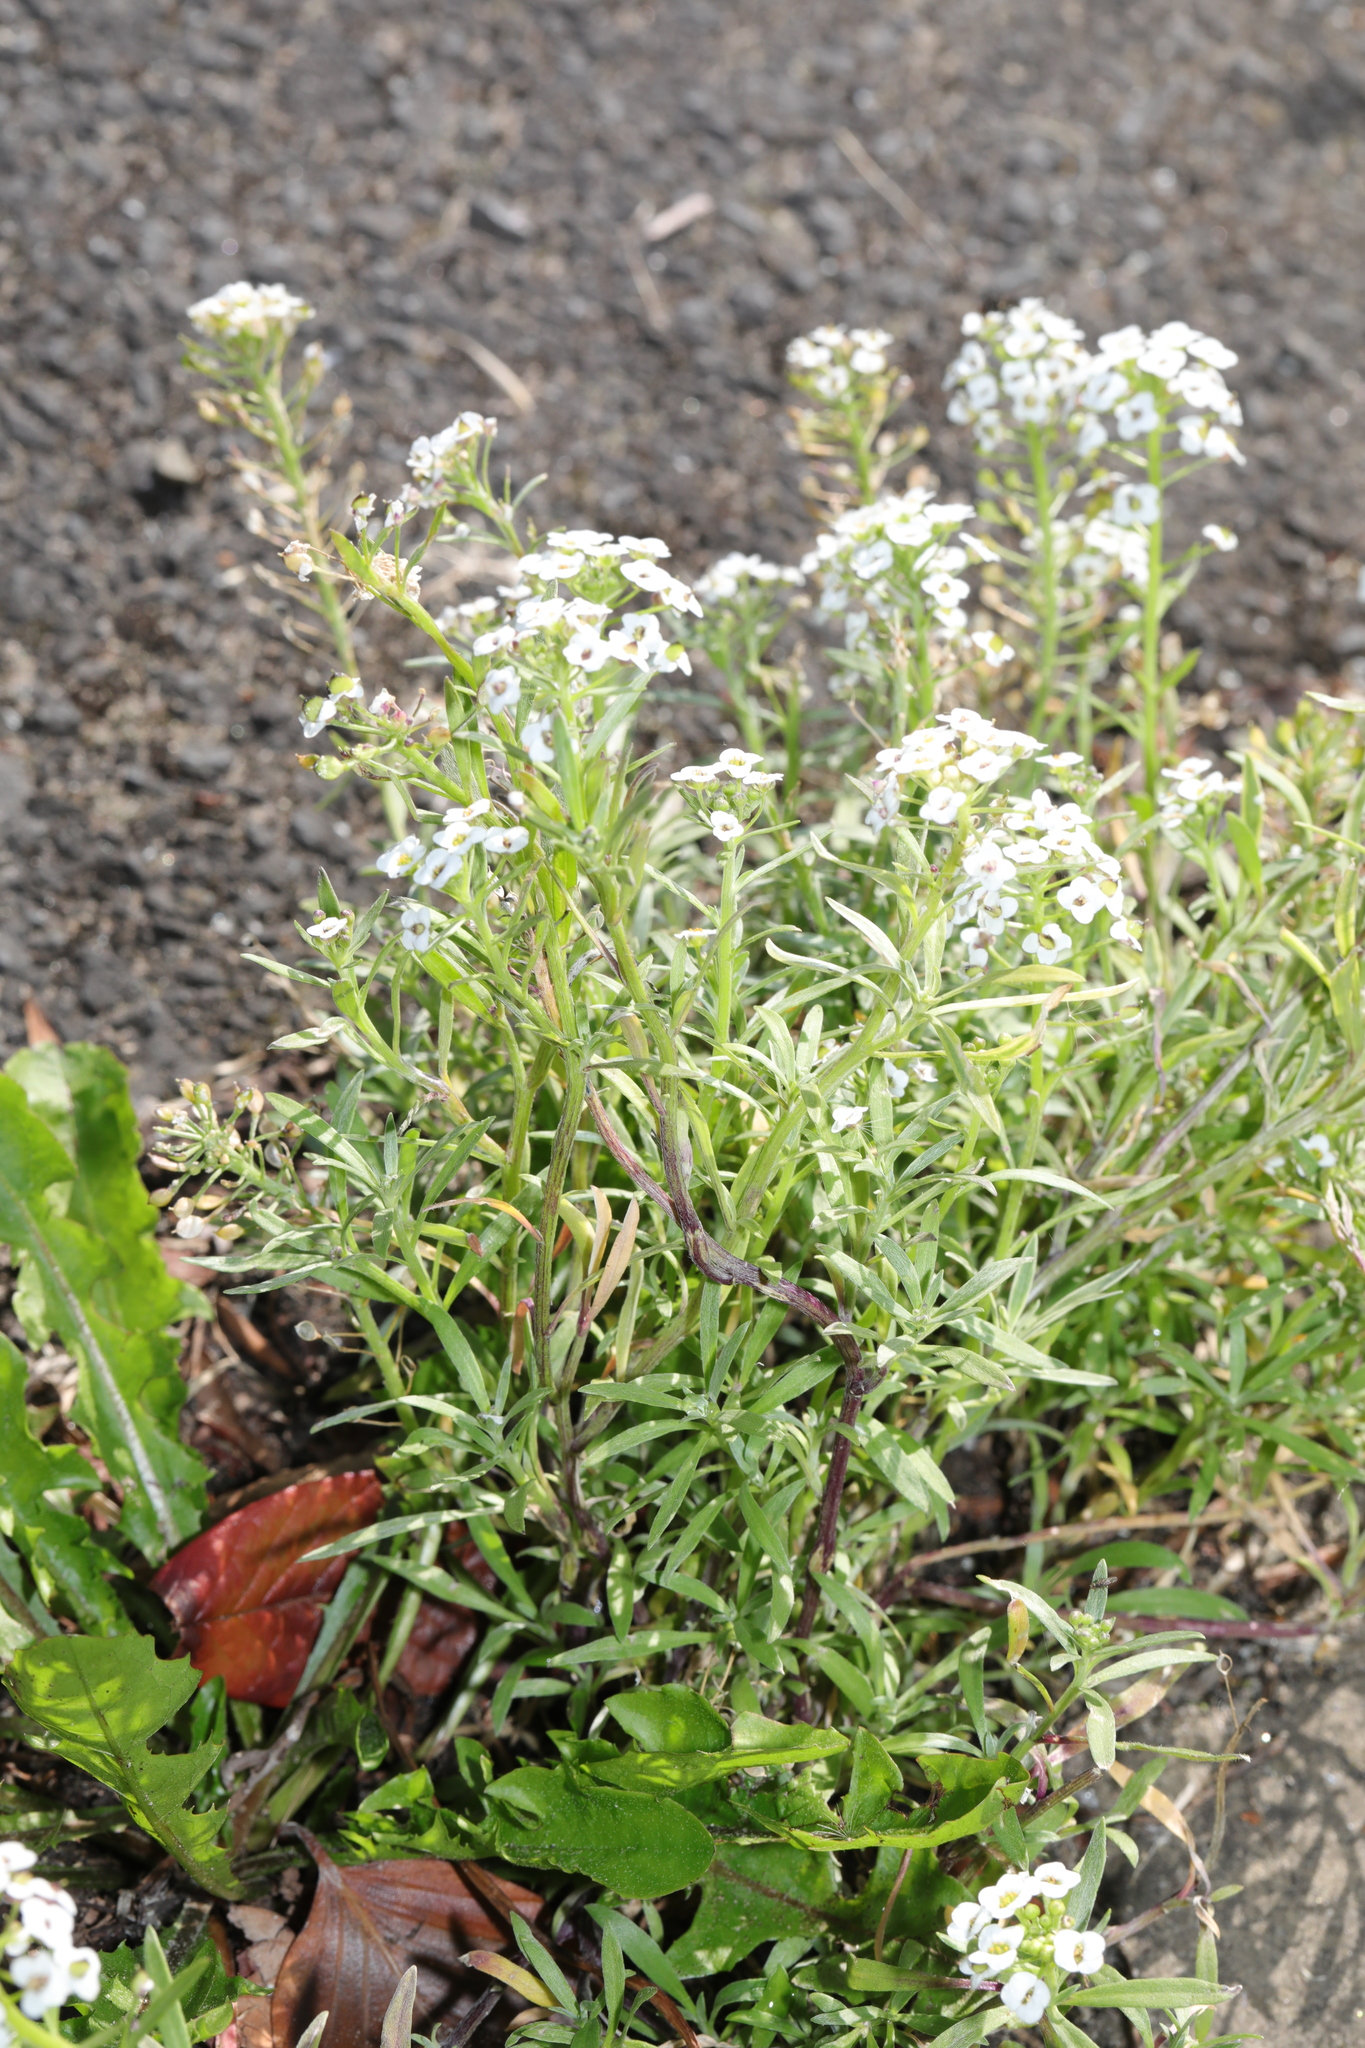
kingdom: Plantae
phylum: Tracheophyta
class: Magnoliopsida
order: Brassicales
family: Brassicaceae
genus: Lobularia
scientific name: Lobularia maritima
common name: Sweet alison
